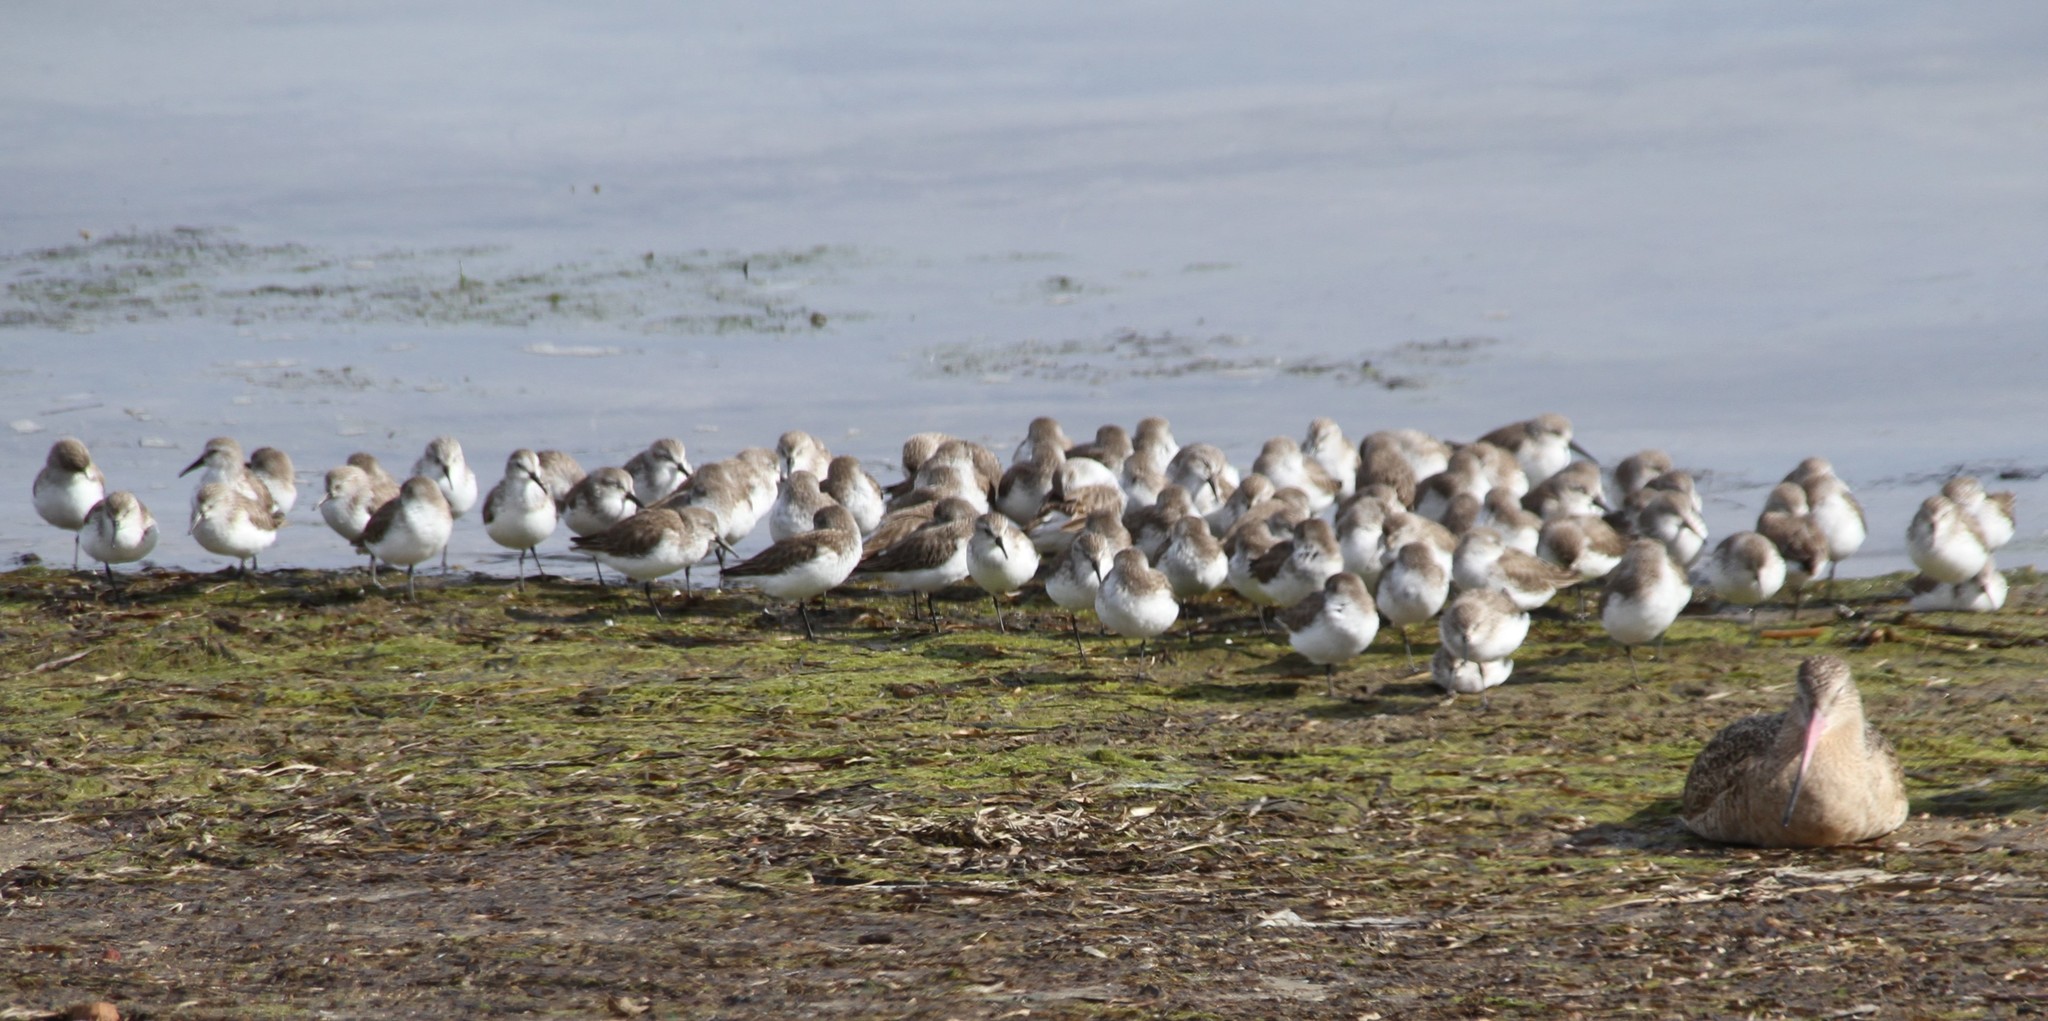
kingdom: Animalia
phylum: Chordata
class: Aves
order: Charadriiformes
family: Scolopacidae
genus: Calidris
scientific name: Calidris mauri
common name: Western sandpiper
